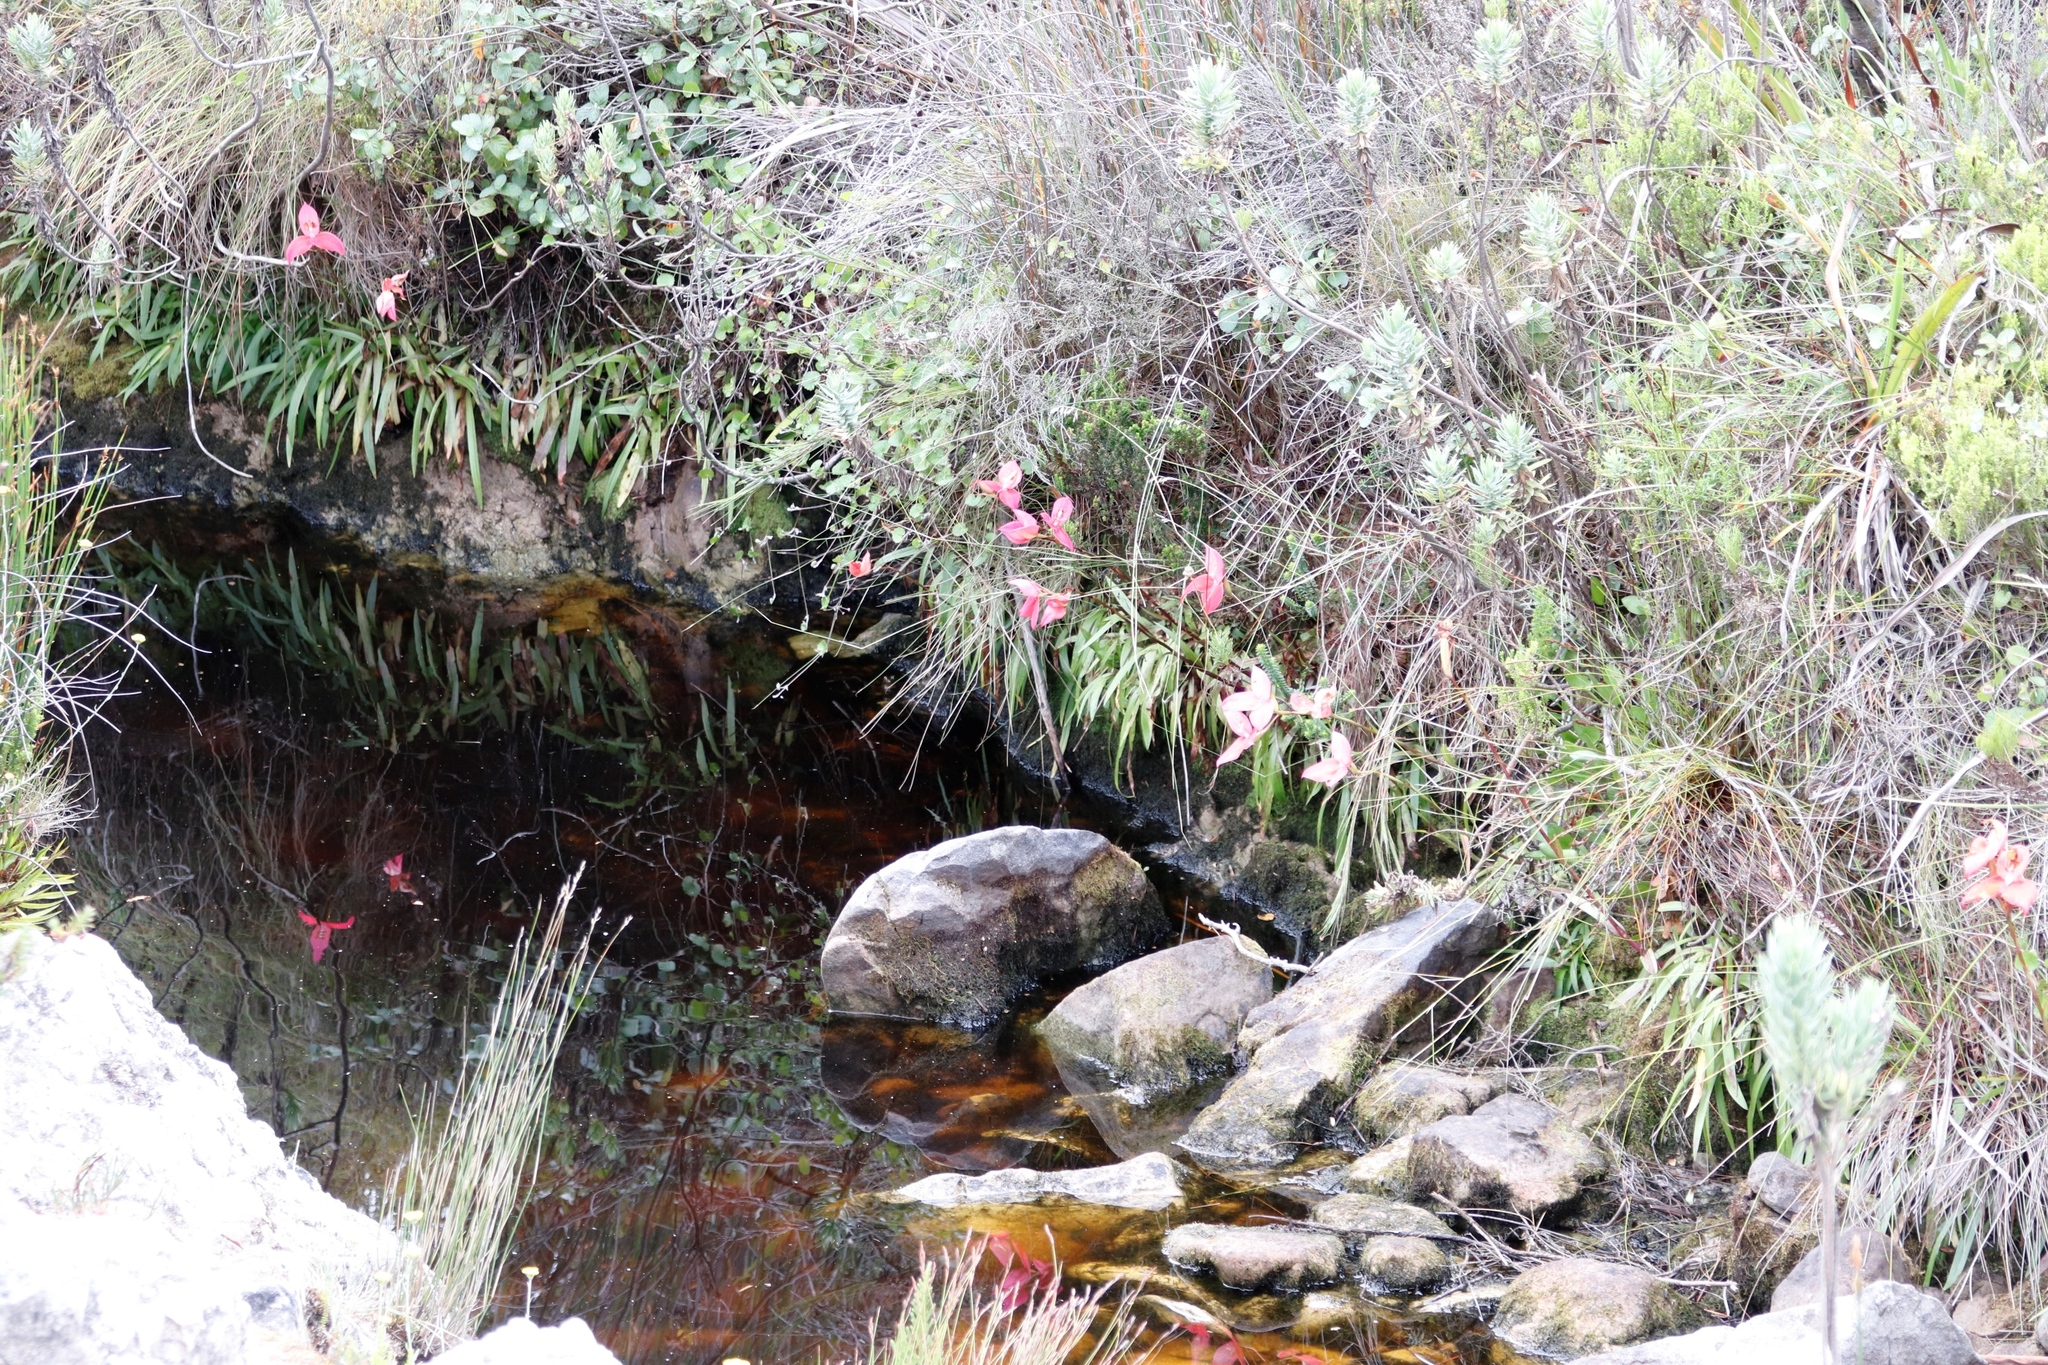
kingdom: Plantae
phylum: Tracheophyta
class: Liliopsida
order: Asparagales
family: Orchidaceae
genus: Disa
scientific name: Disa uniflora
